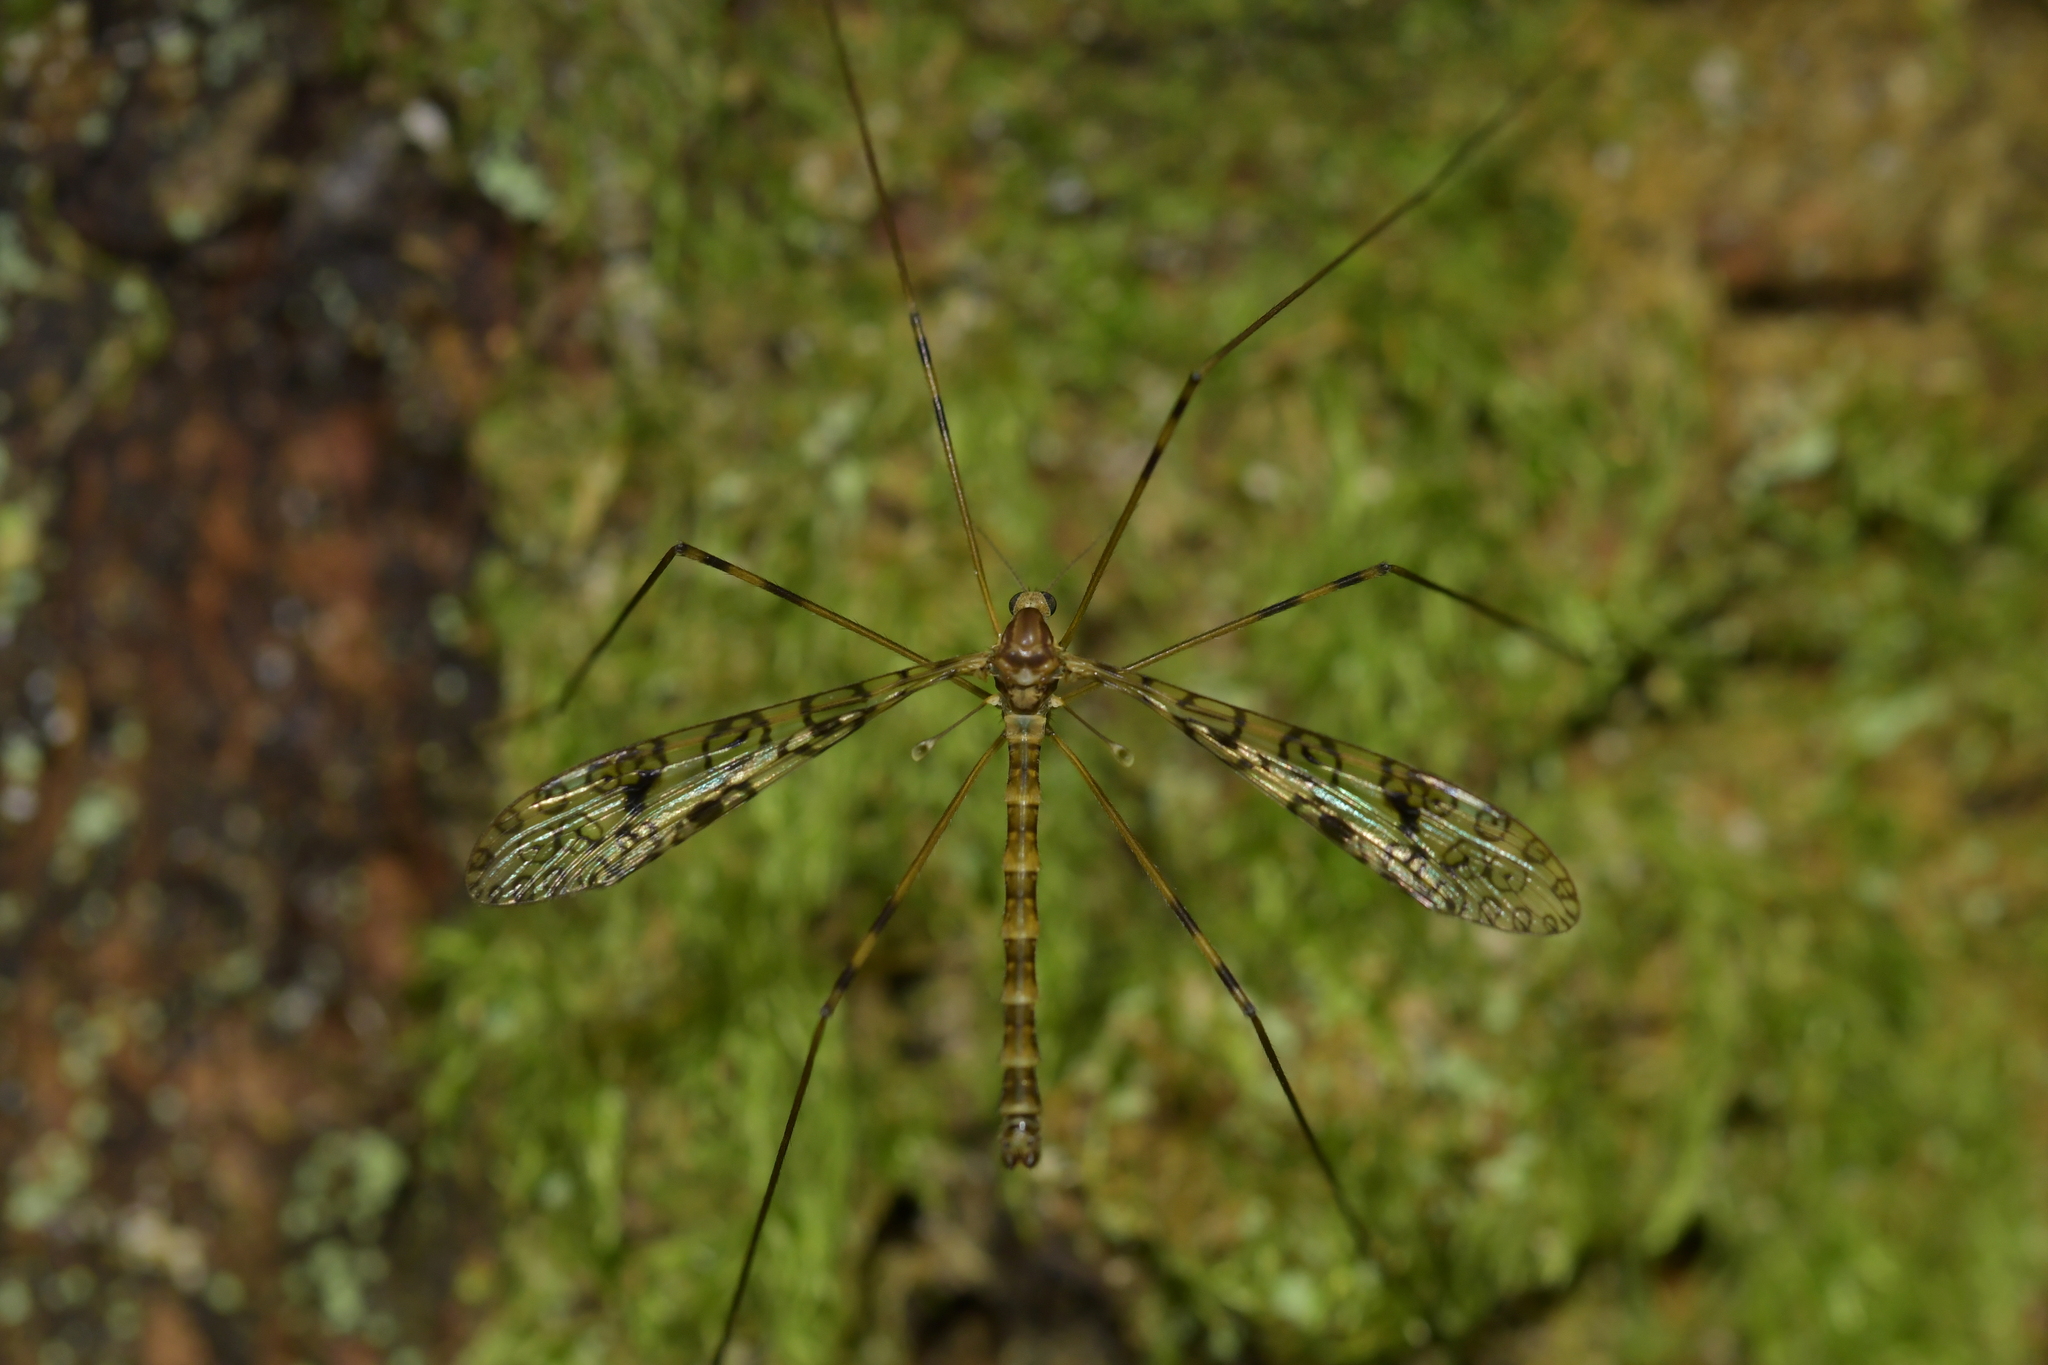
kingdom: Animalia
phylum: Arthropoda
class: Insecta
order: Diptera
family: Limoniidae
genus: Austrolimnophila
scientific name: Austrolimnophila argus
